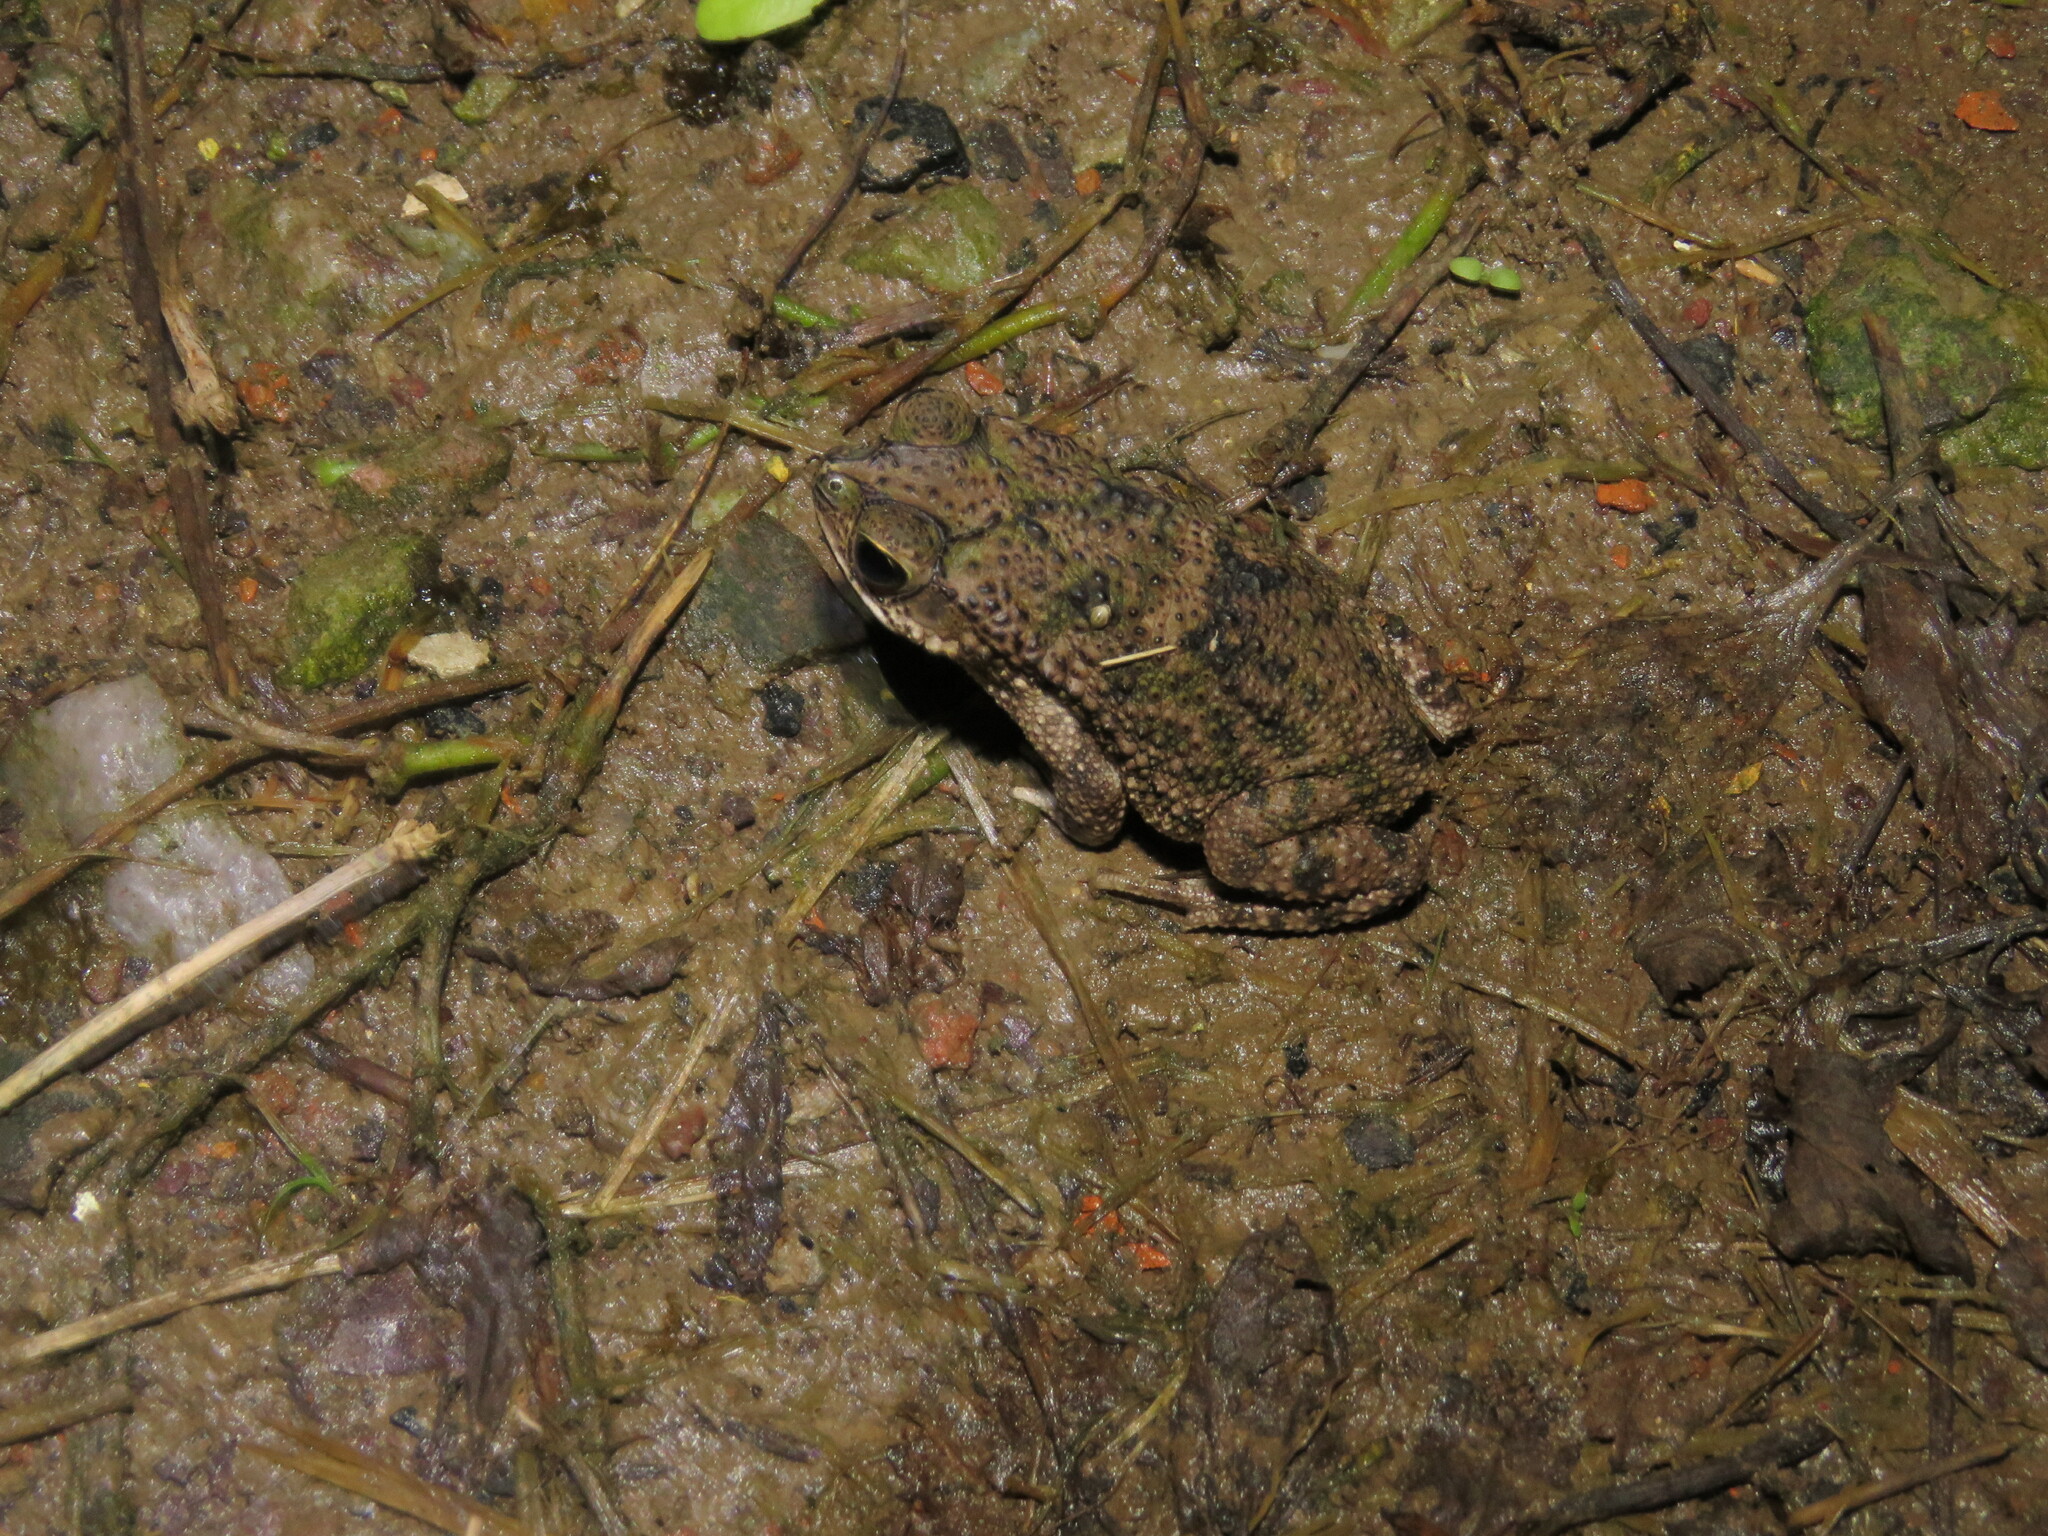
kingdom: Animalia
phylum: Chordata
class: Amphibia
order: Anura
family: Bufonidae
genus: Rhinella
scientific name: Rhinella major
